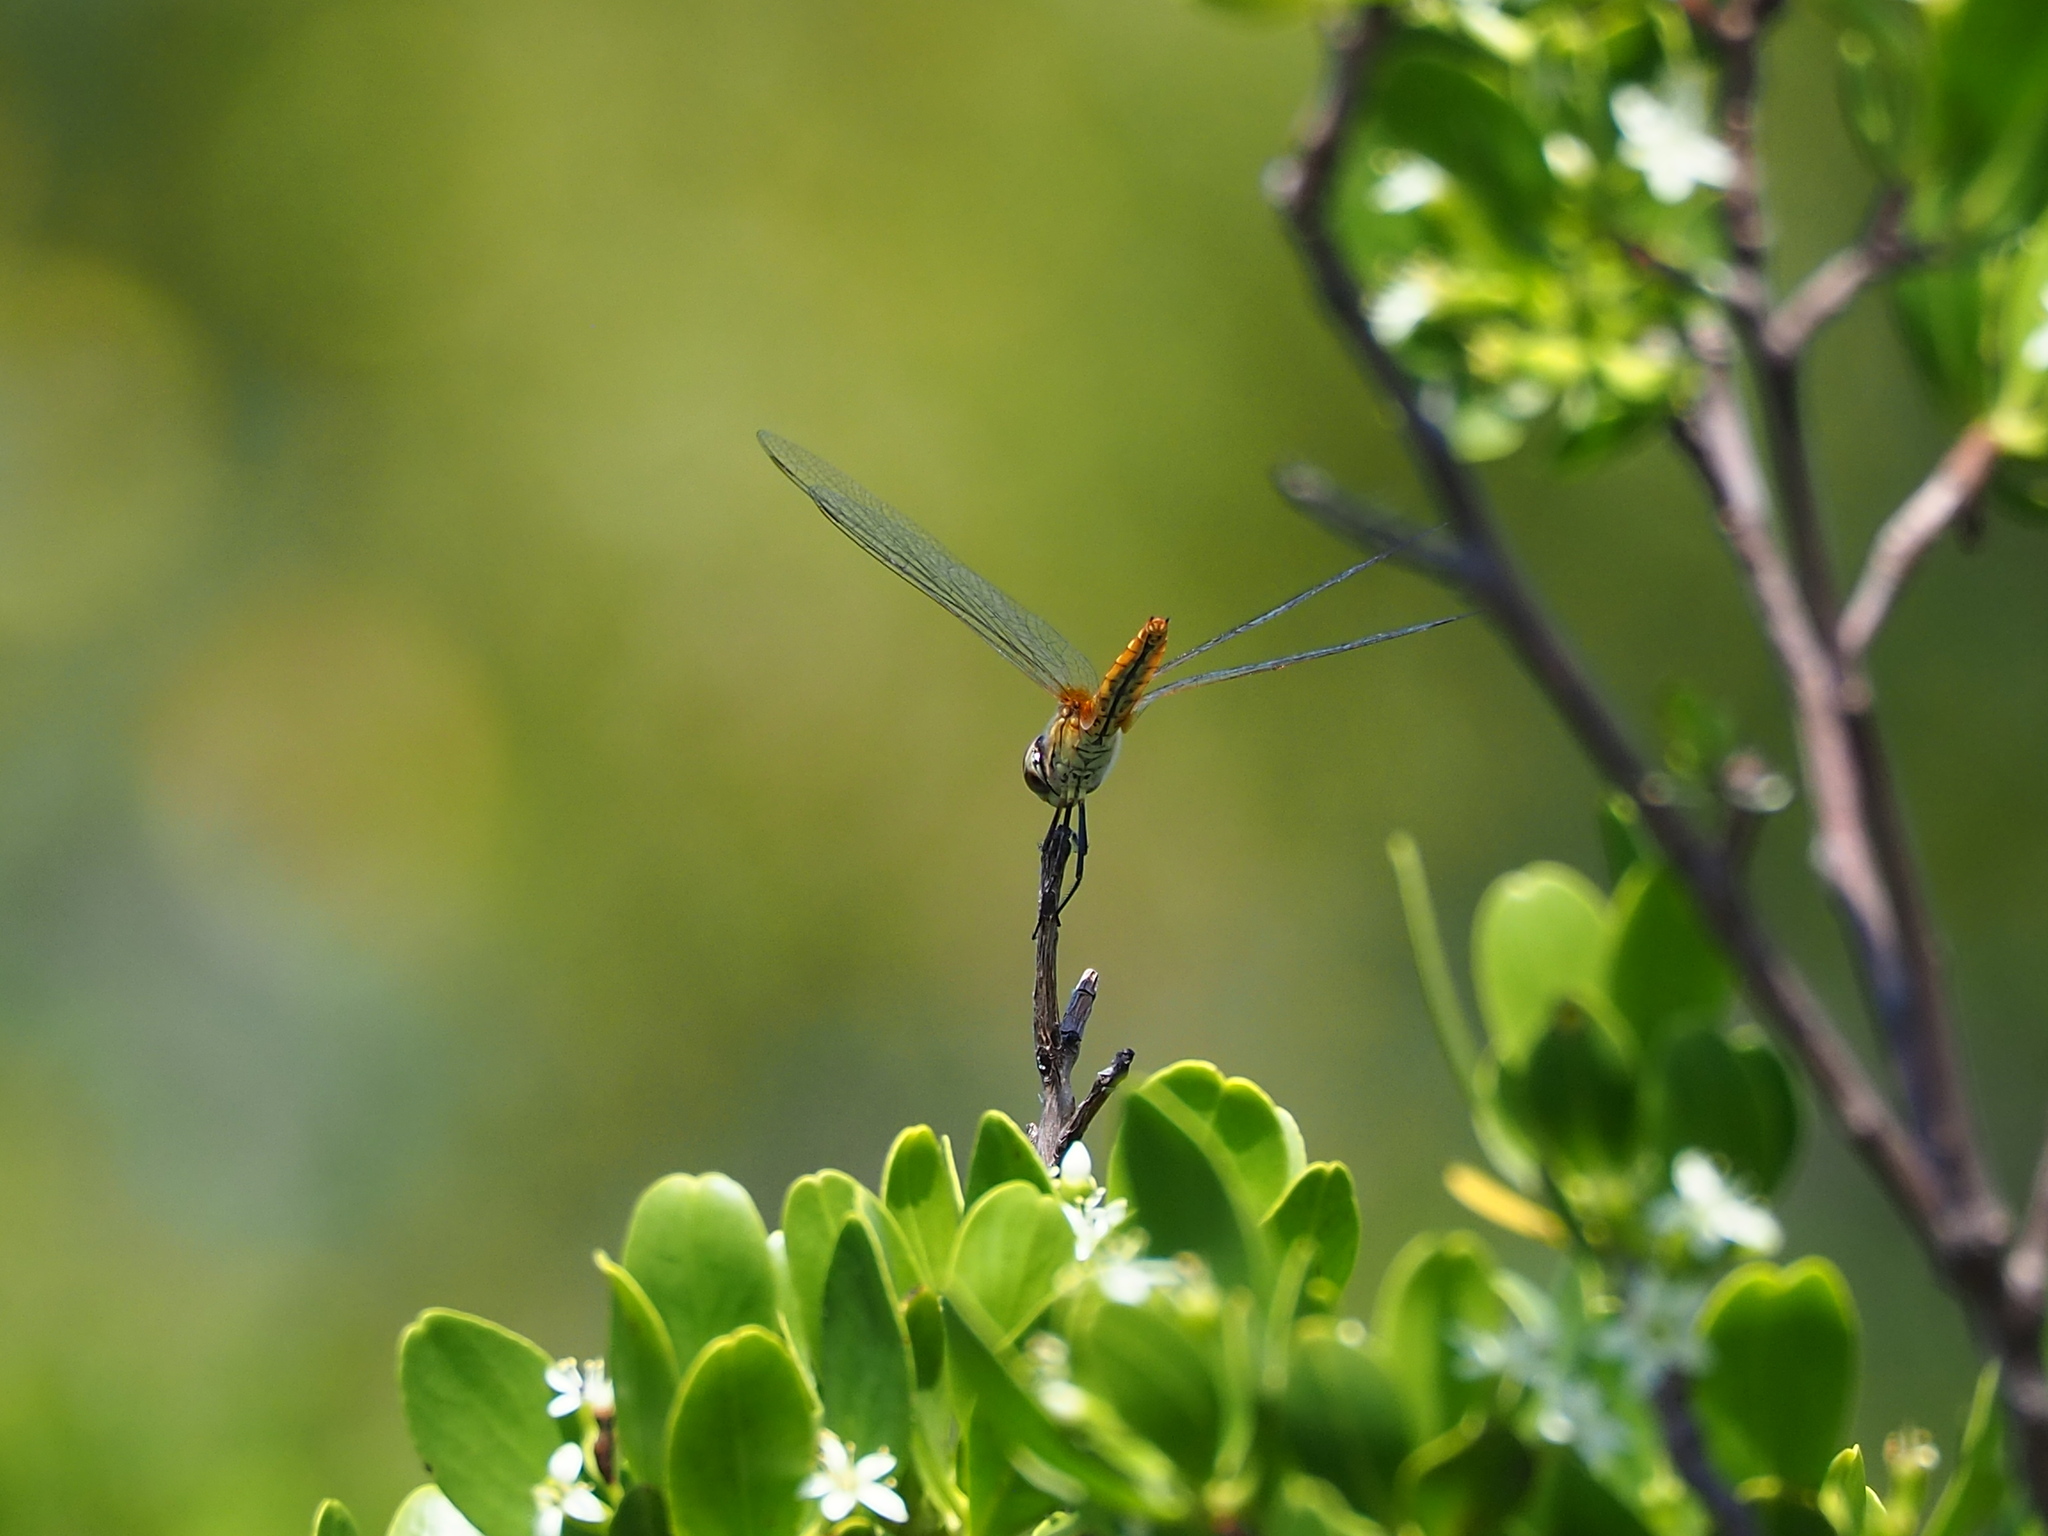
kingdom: Animalia
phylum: Arthropoda
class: Insecta
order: Odonata
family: Libellulidae
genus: Macrodiplax
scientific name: Macrodiplax cora
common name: Coastal glider
